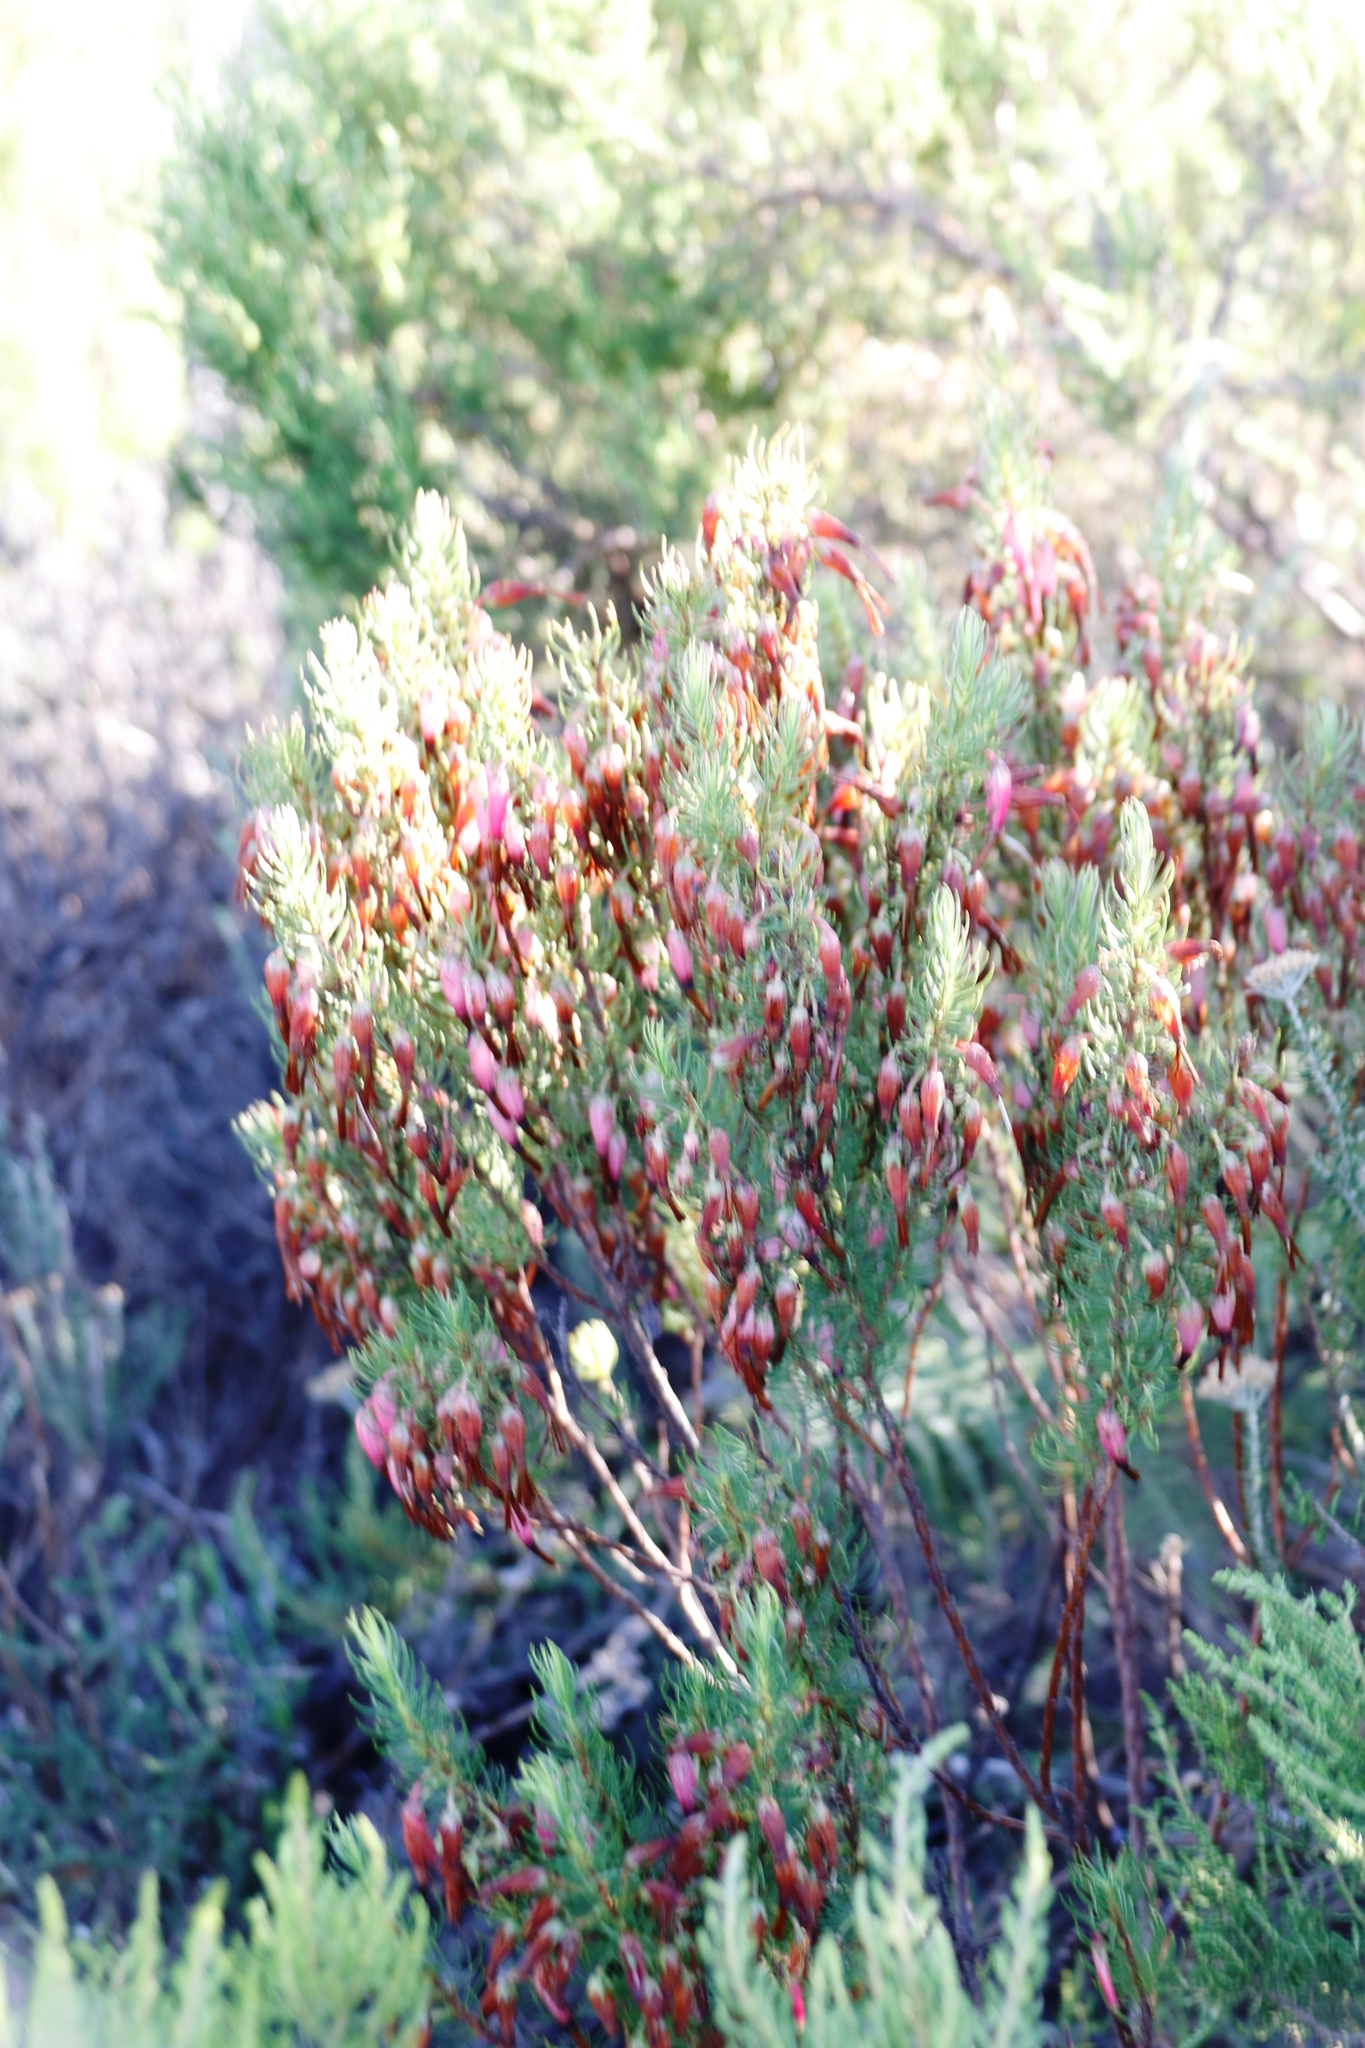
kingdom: Plantae
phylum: Tracheophyta
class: Magnoliopsida
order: Ericales
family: Ericaceae
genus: Erica
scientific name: Erica plukenetii
